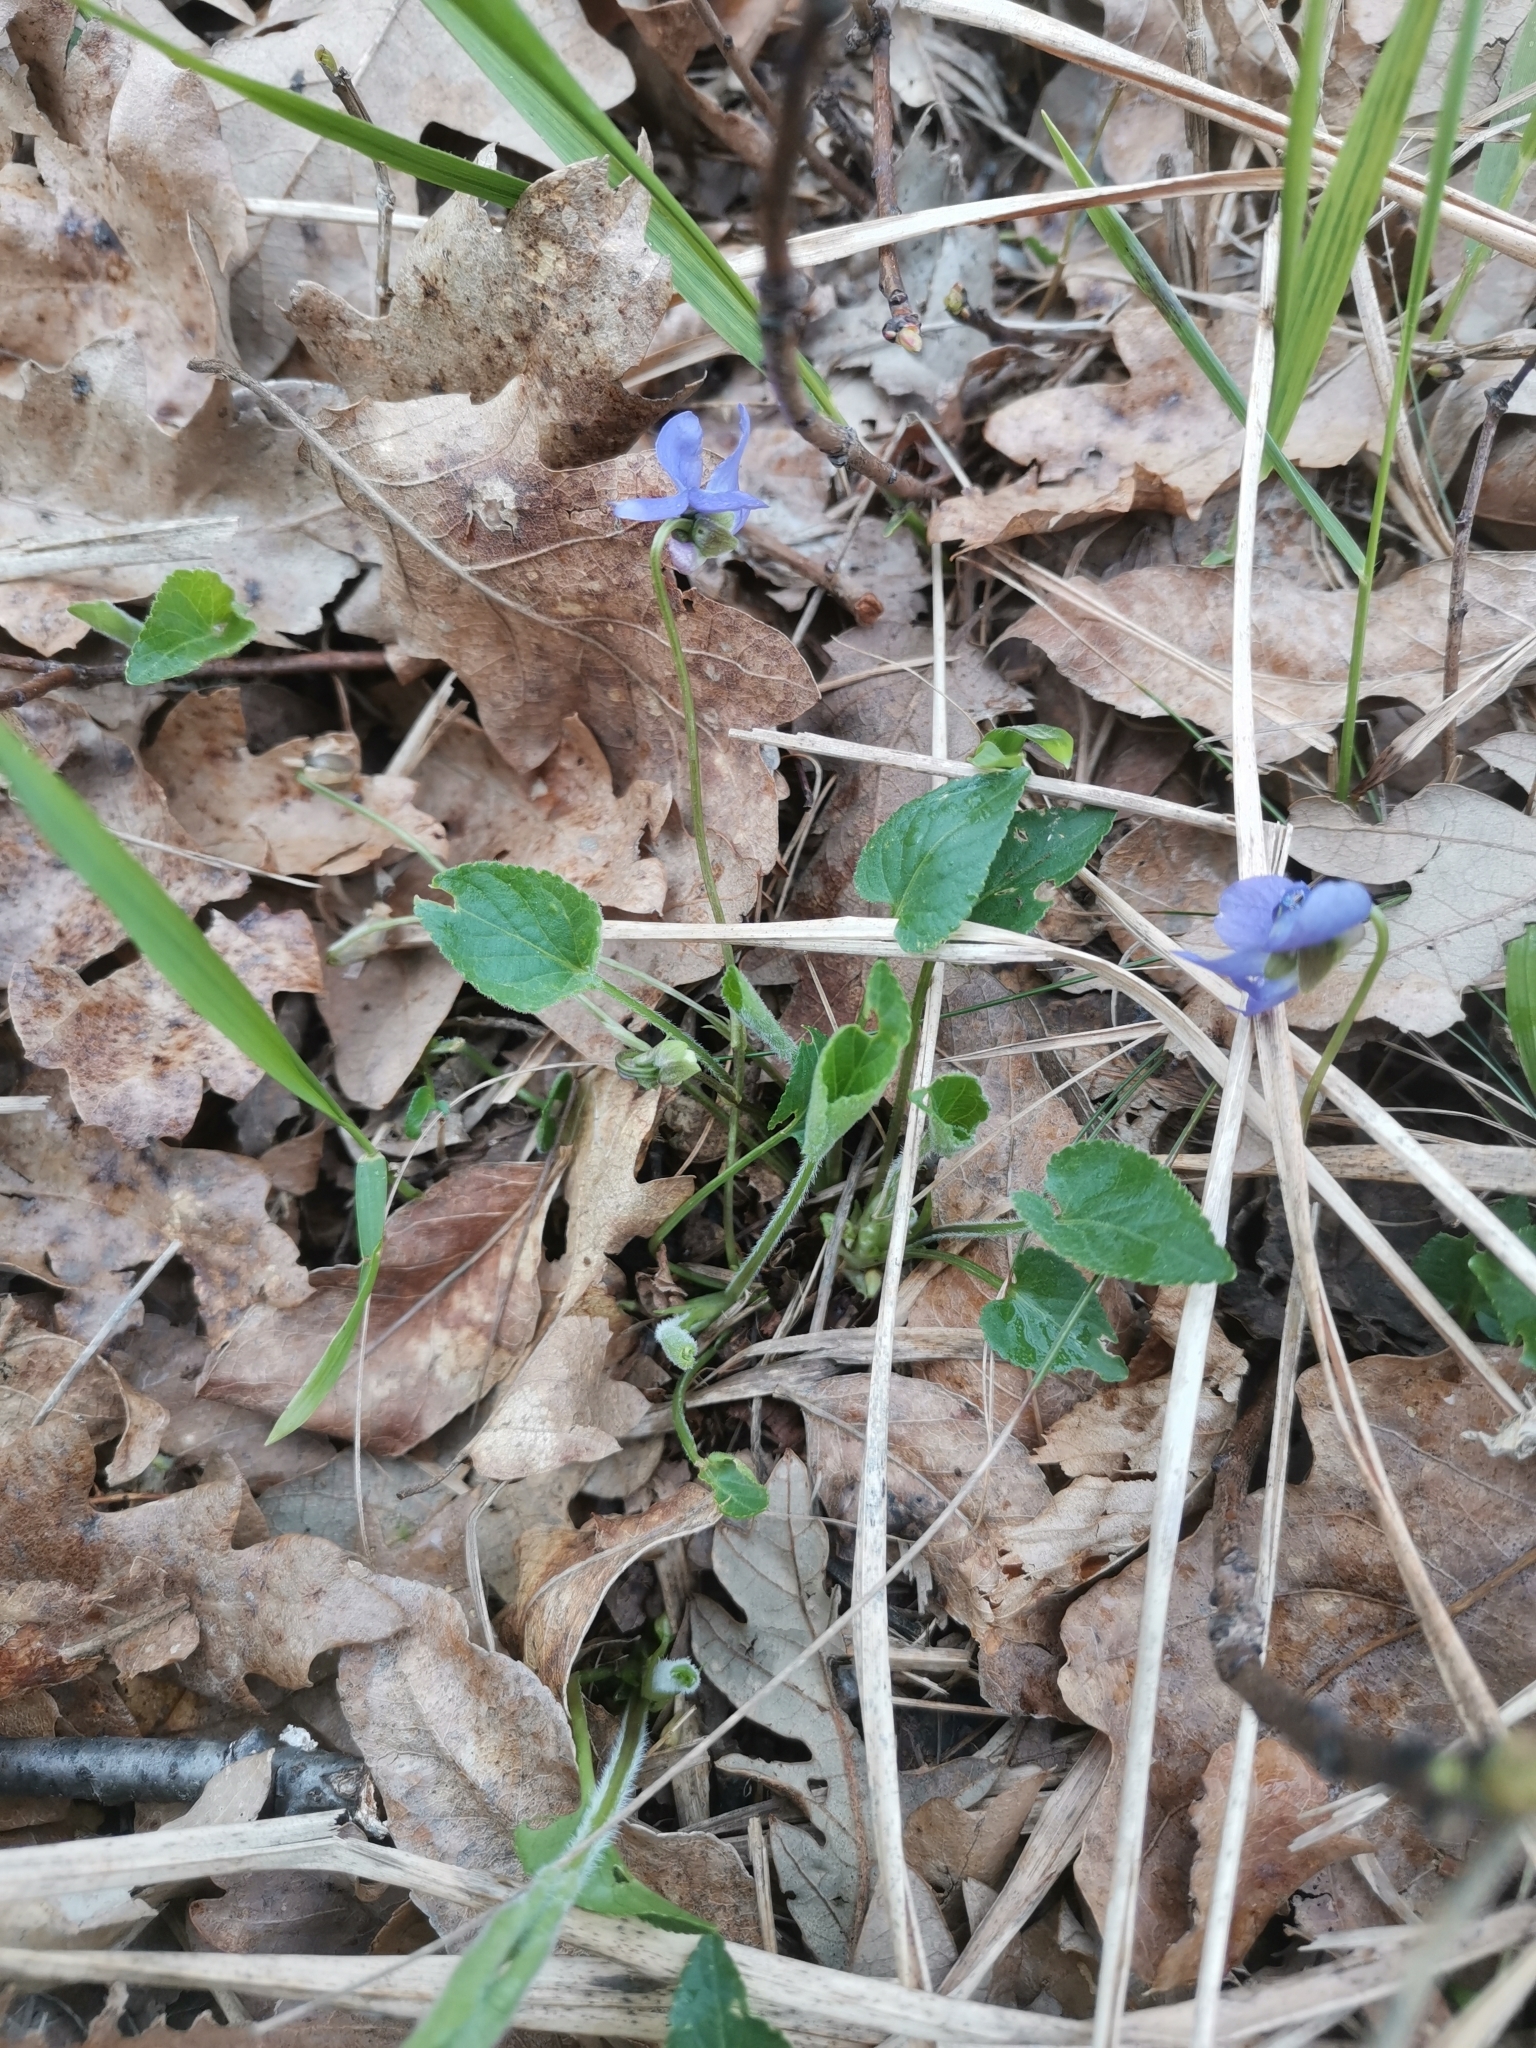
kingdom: Plantae
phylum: Tracheophyta
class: Magnoliopsida
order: Malpighiales
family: Violaceae
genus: Viola
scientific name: Viola hirta
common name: Hairy violet
